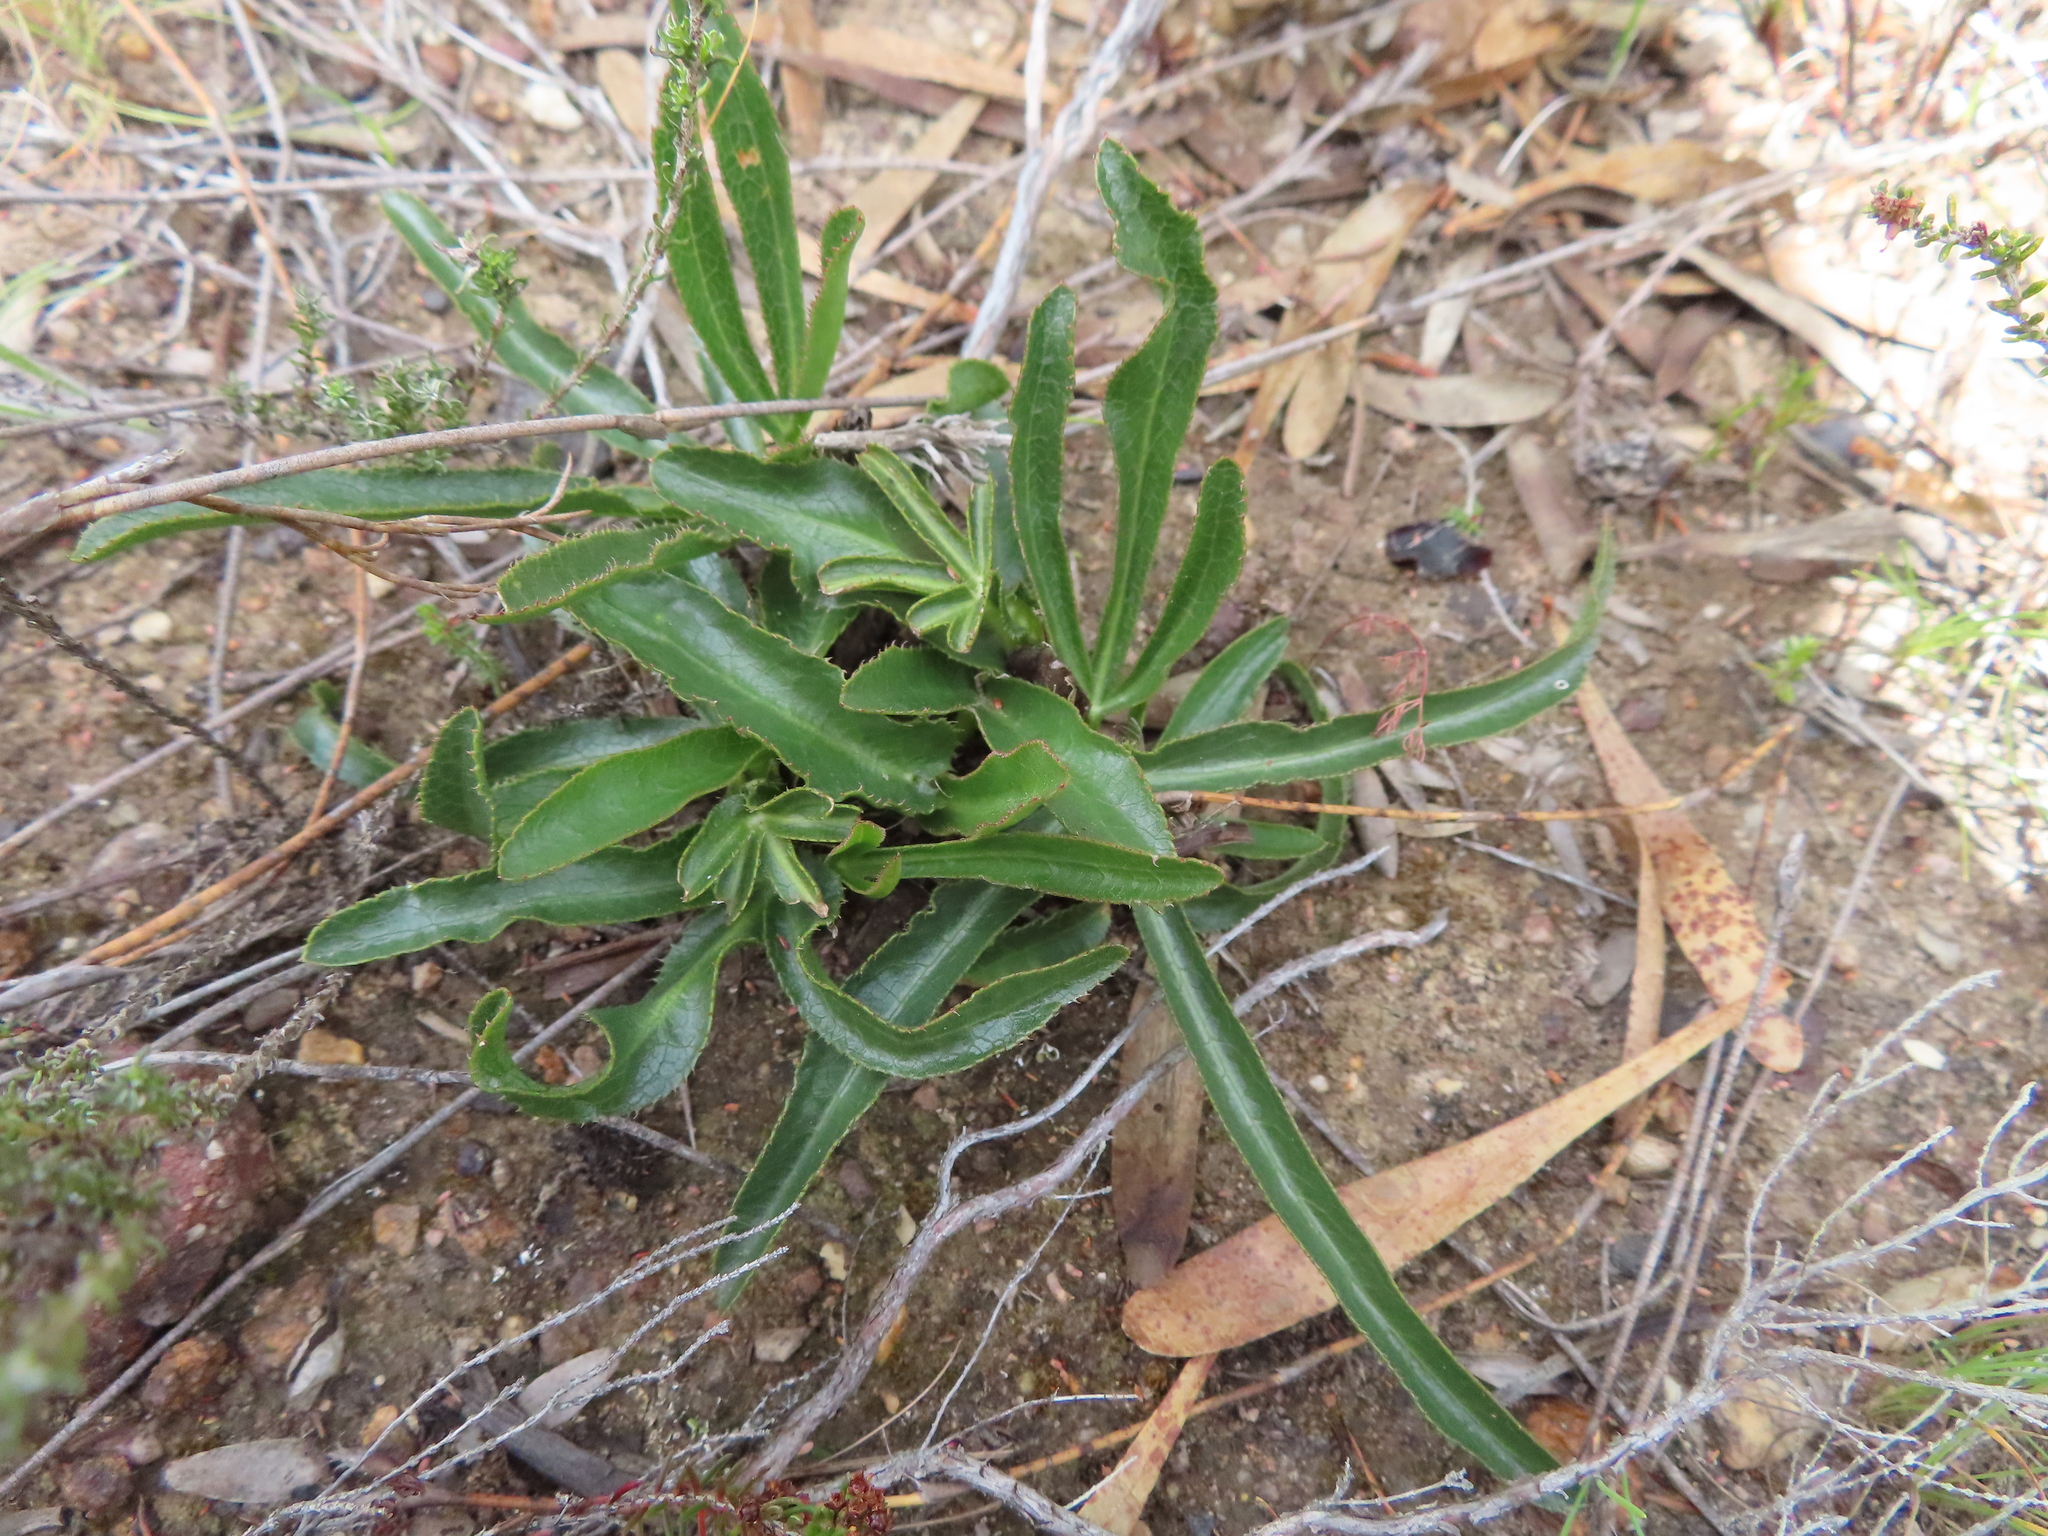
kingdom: Plantae
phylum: Tracheophyta
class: Magnoliopsida
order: Apiales
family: Apiaceae
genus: Lichtensteinia
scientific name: Lichtensteinia trifida
